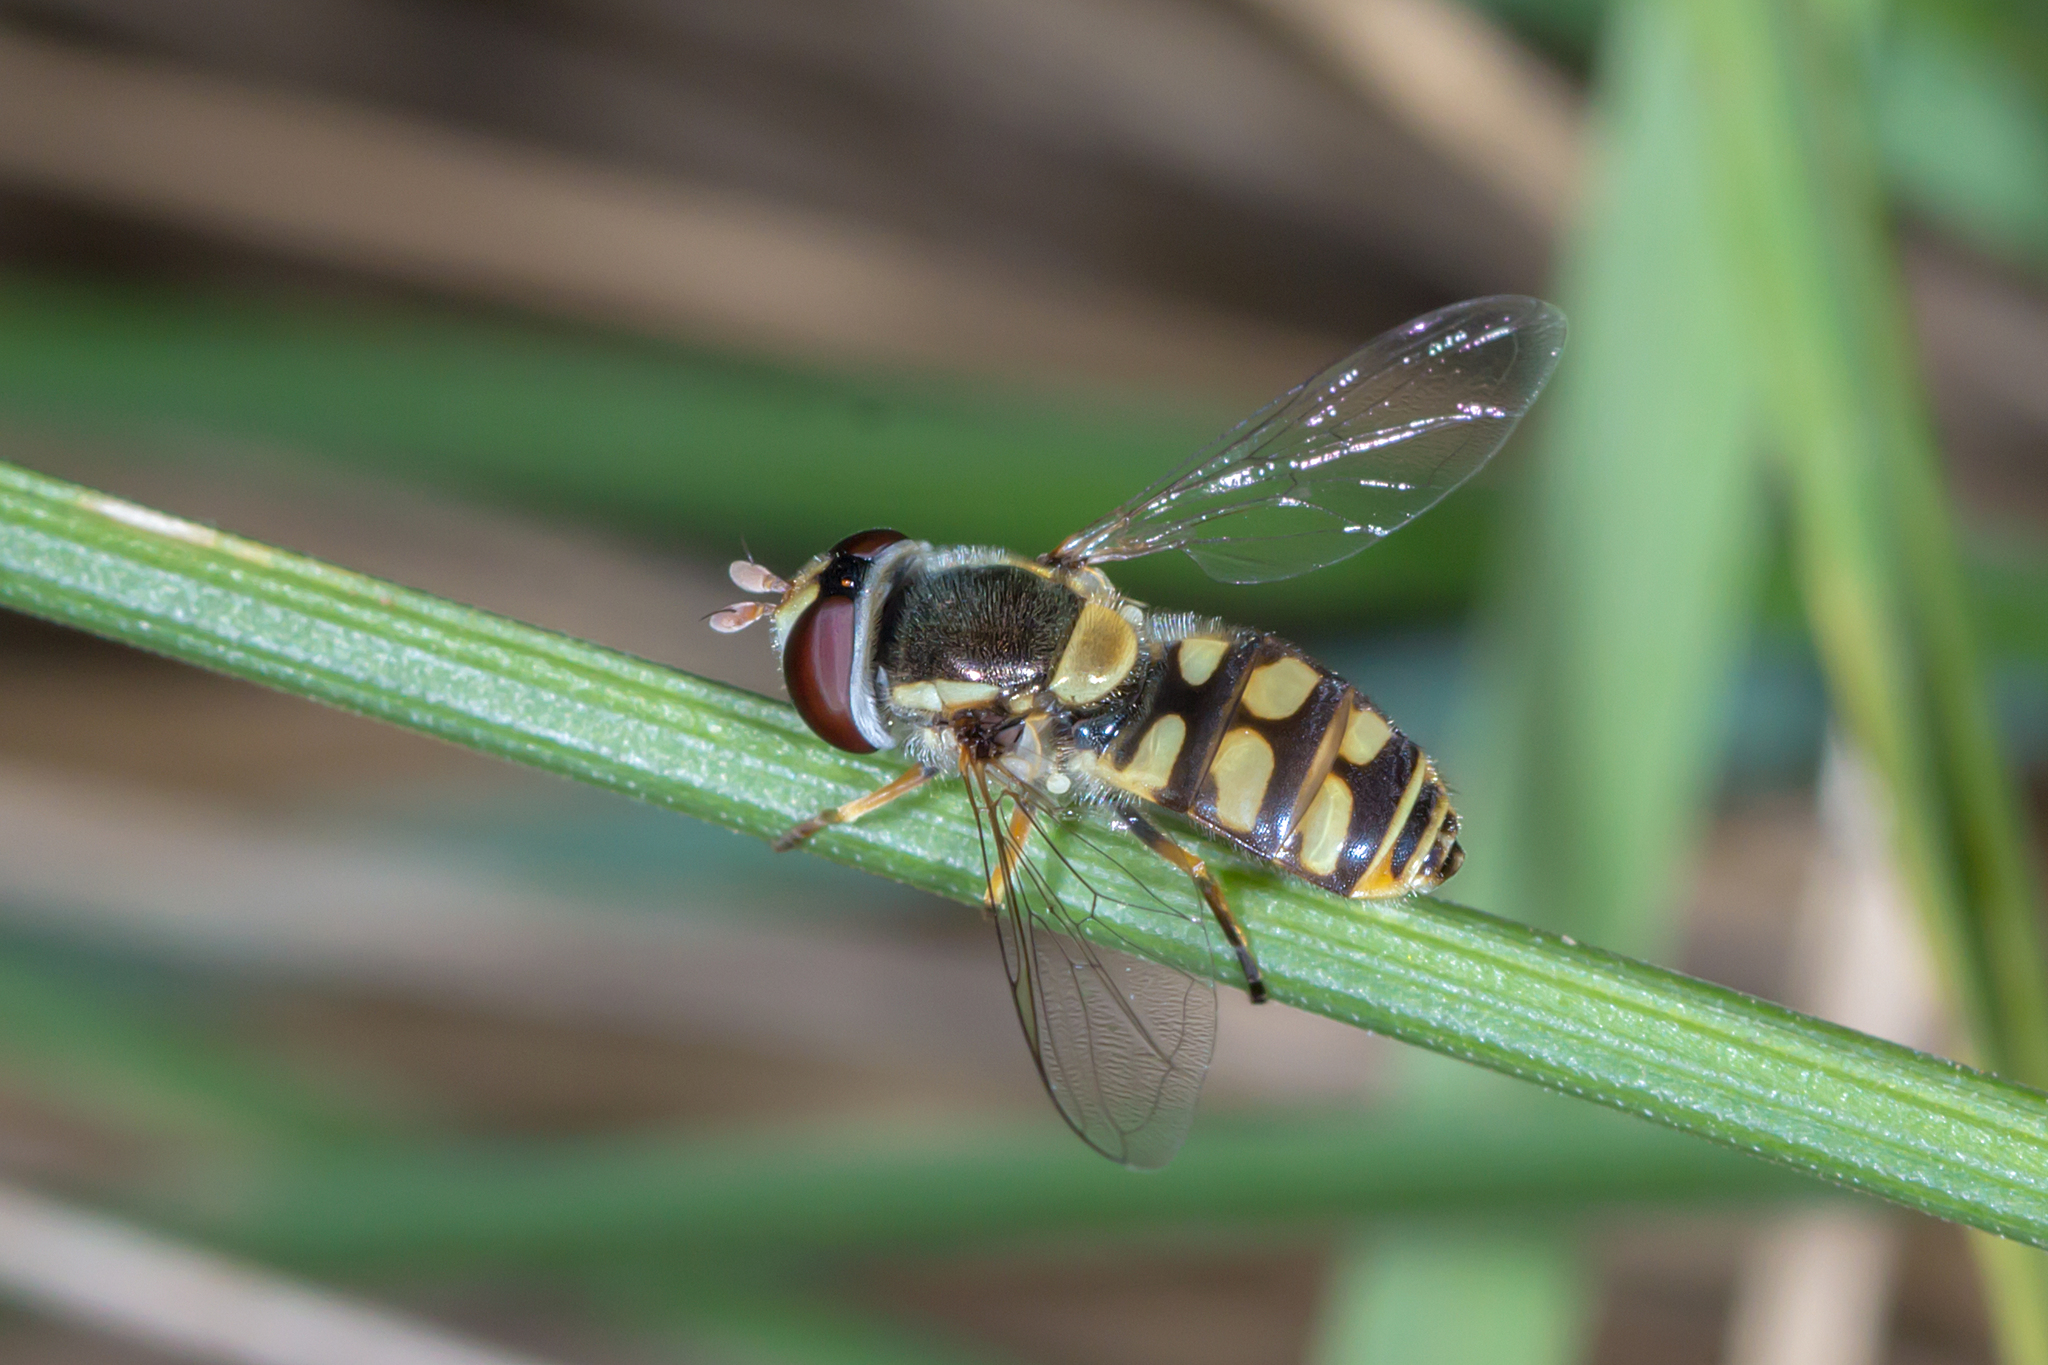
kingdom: Animalia
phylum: Arthropoda
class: Insecta
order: Diptera
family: Syrphidae
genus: Simosyrphus
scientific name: Simosyrphus grandicornis
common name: Hoverfly
